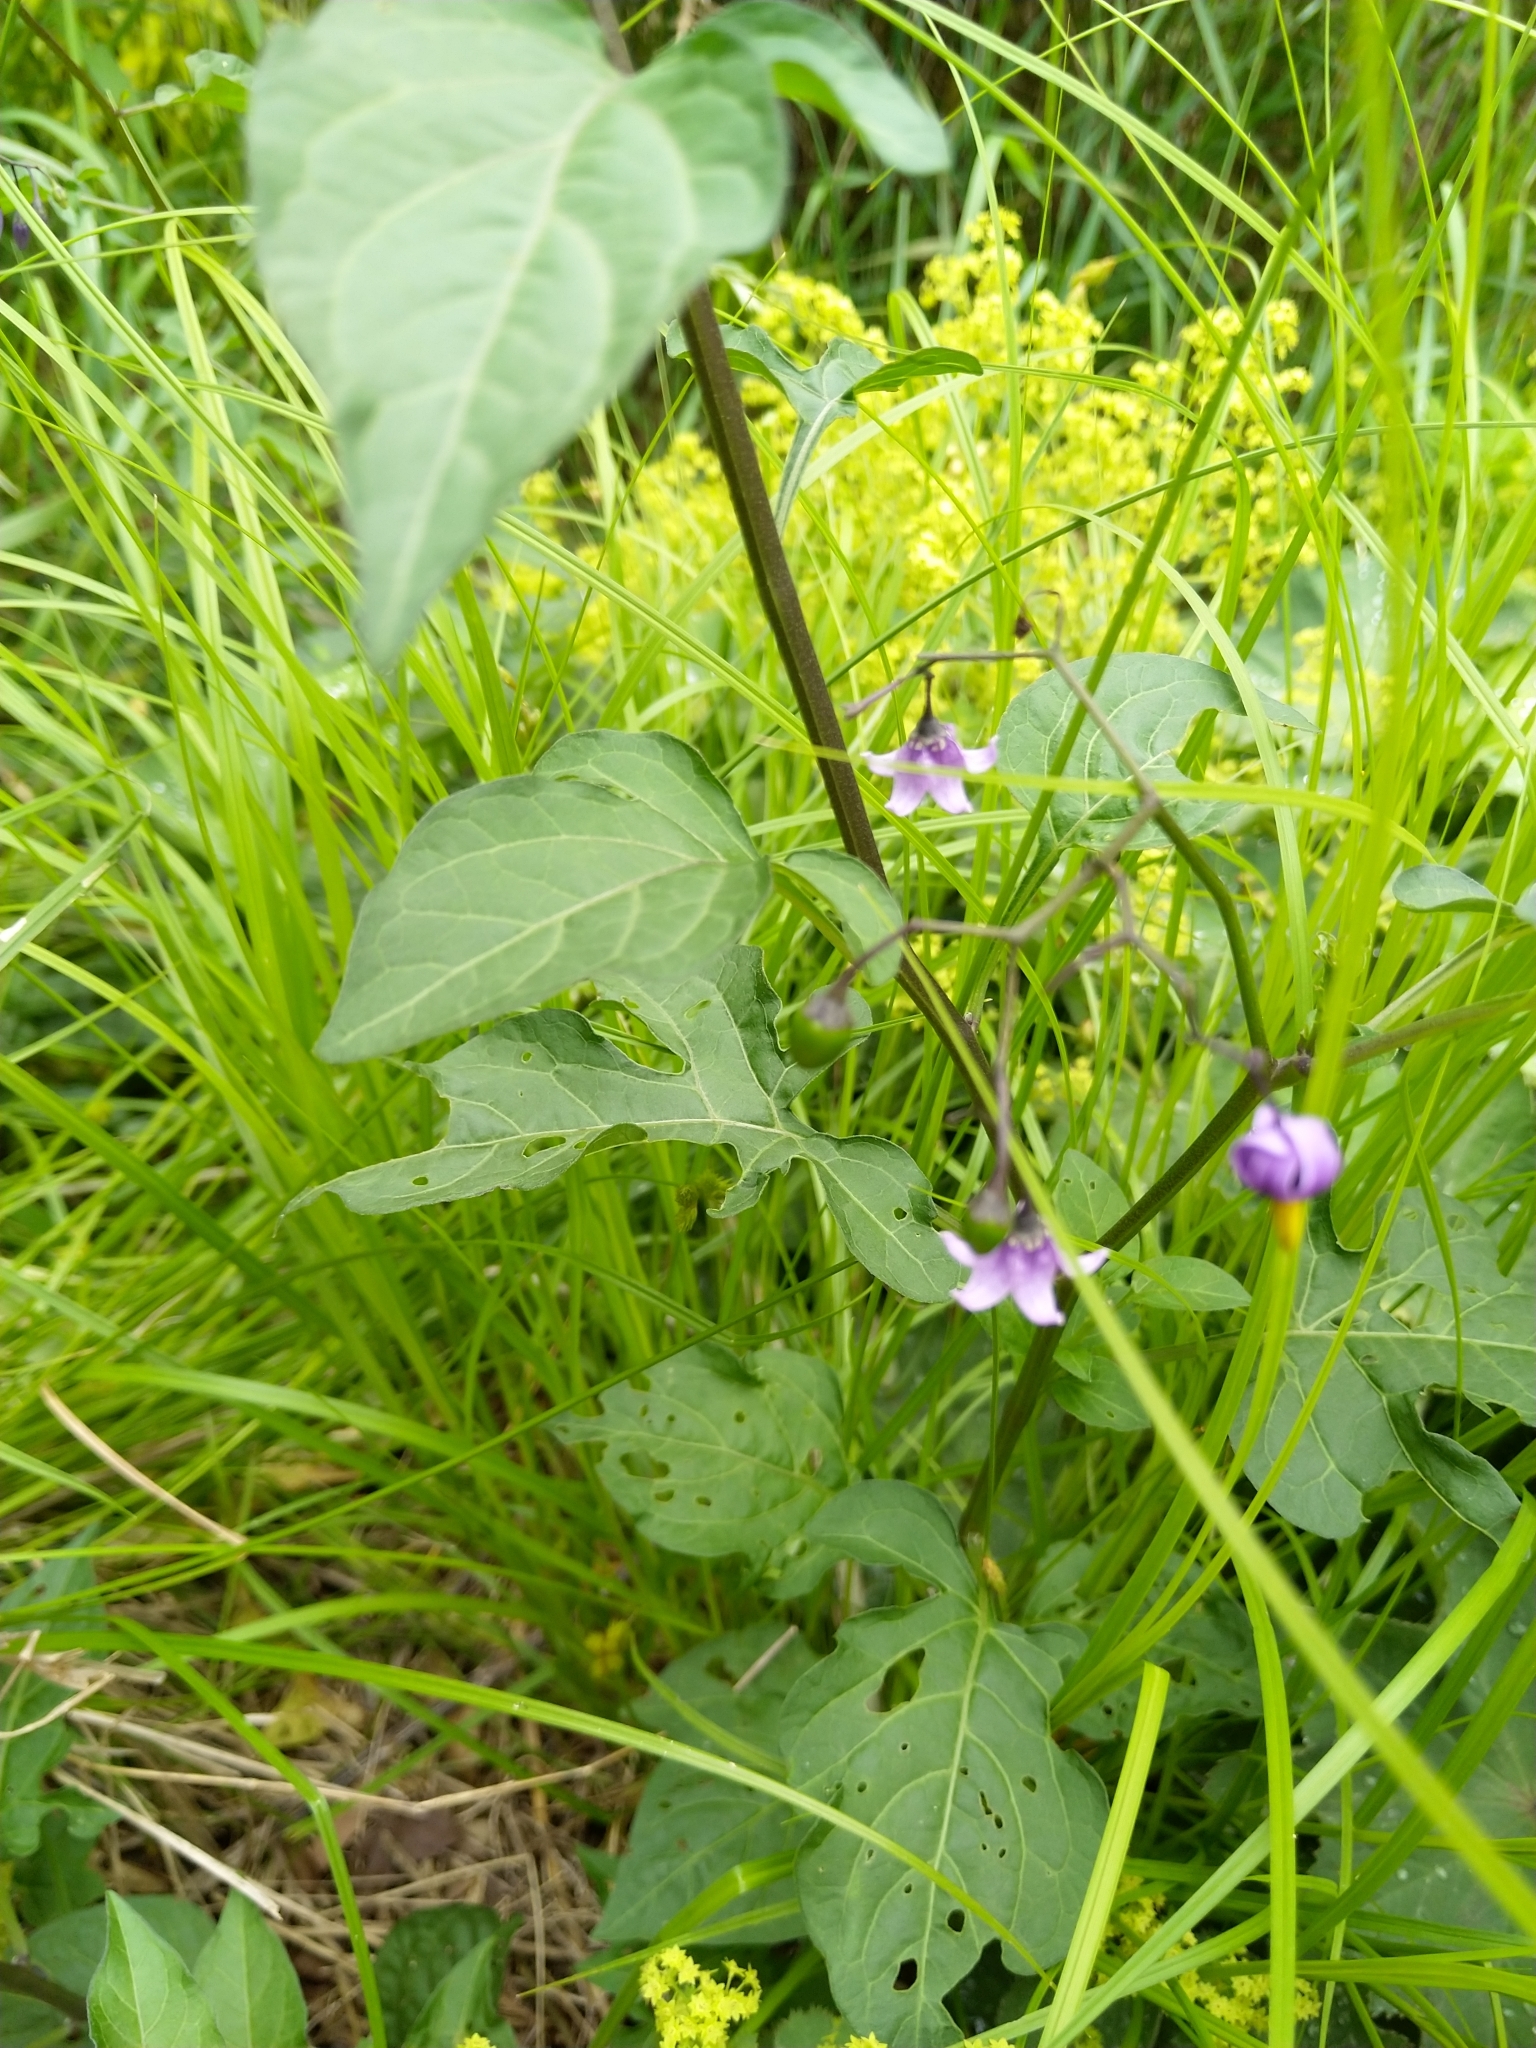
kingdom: Plantae
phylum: Tracheophyta
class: Magnoliopsida
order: Solanales
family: Solanaceae
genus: Solanum
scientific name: Solanum dulcamara
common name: Climbing nightshade
